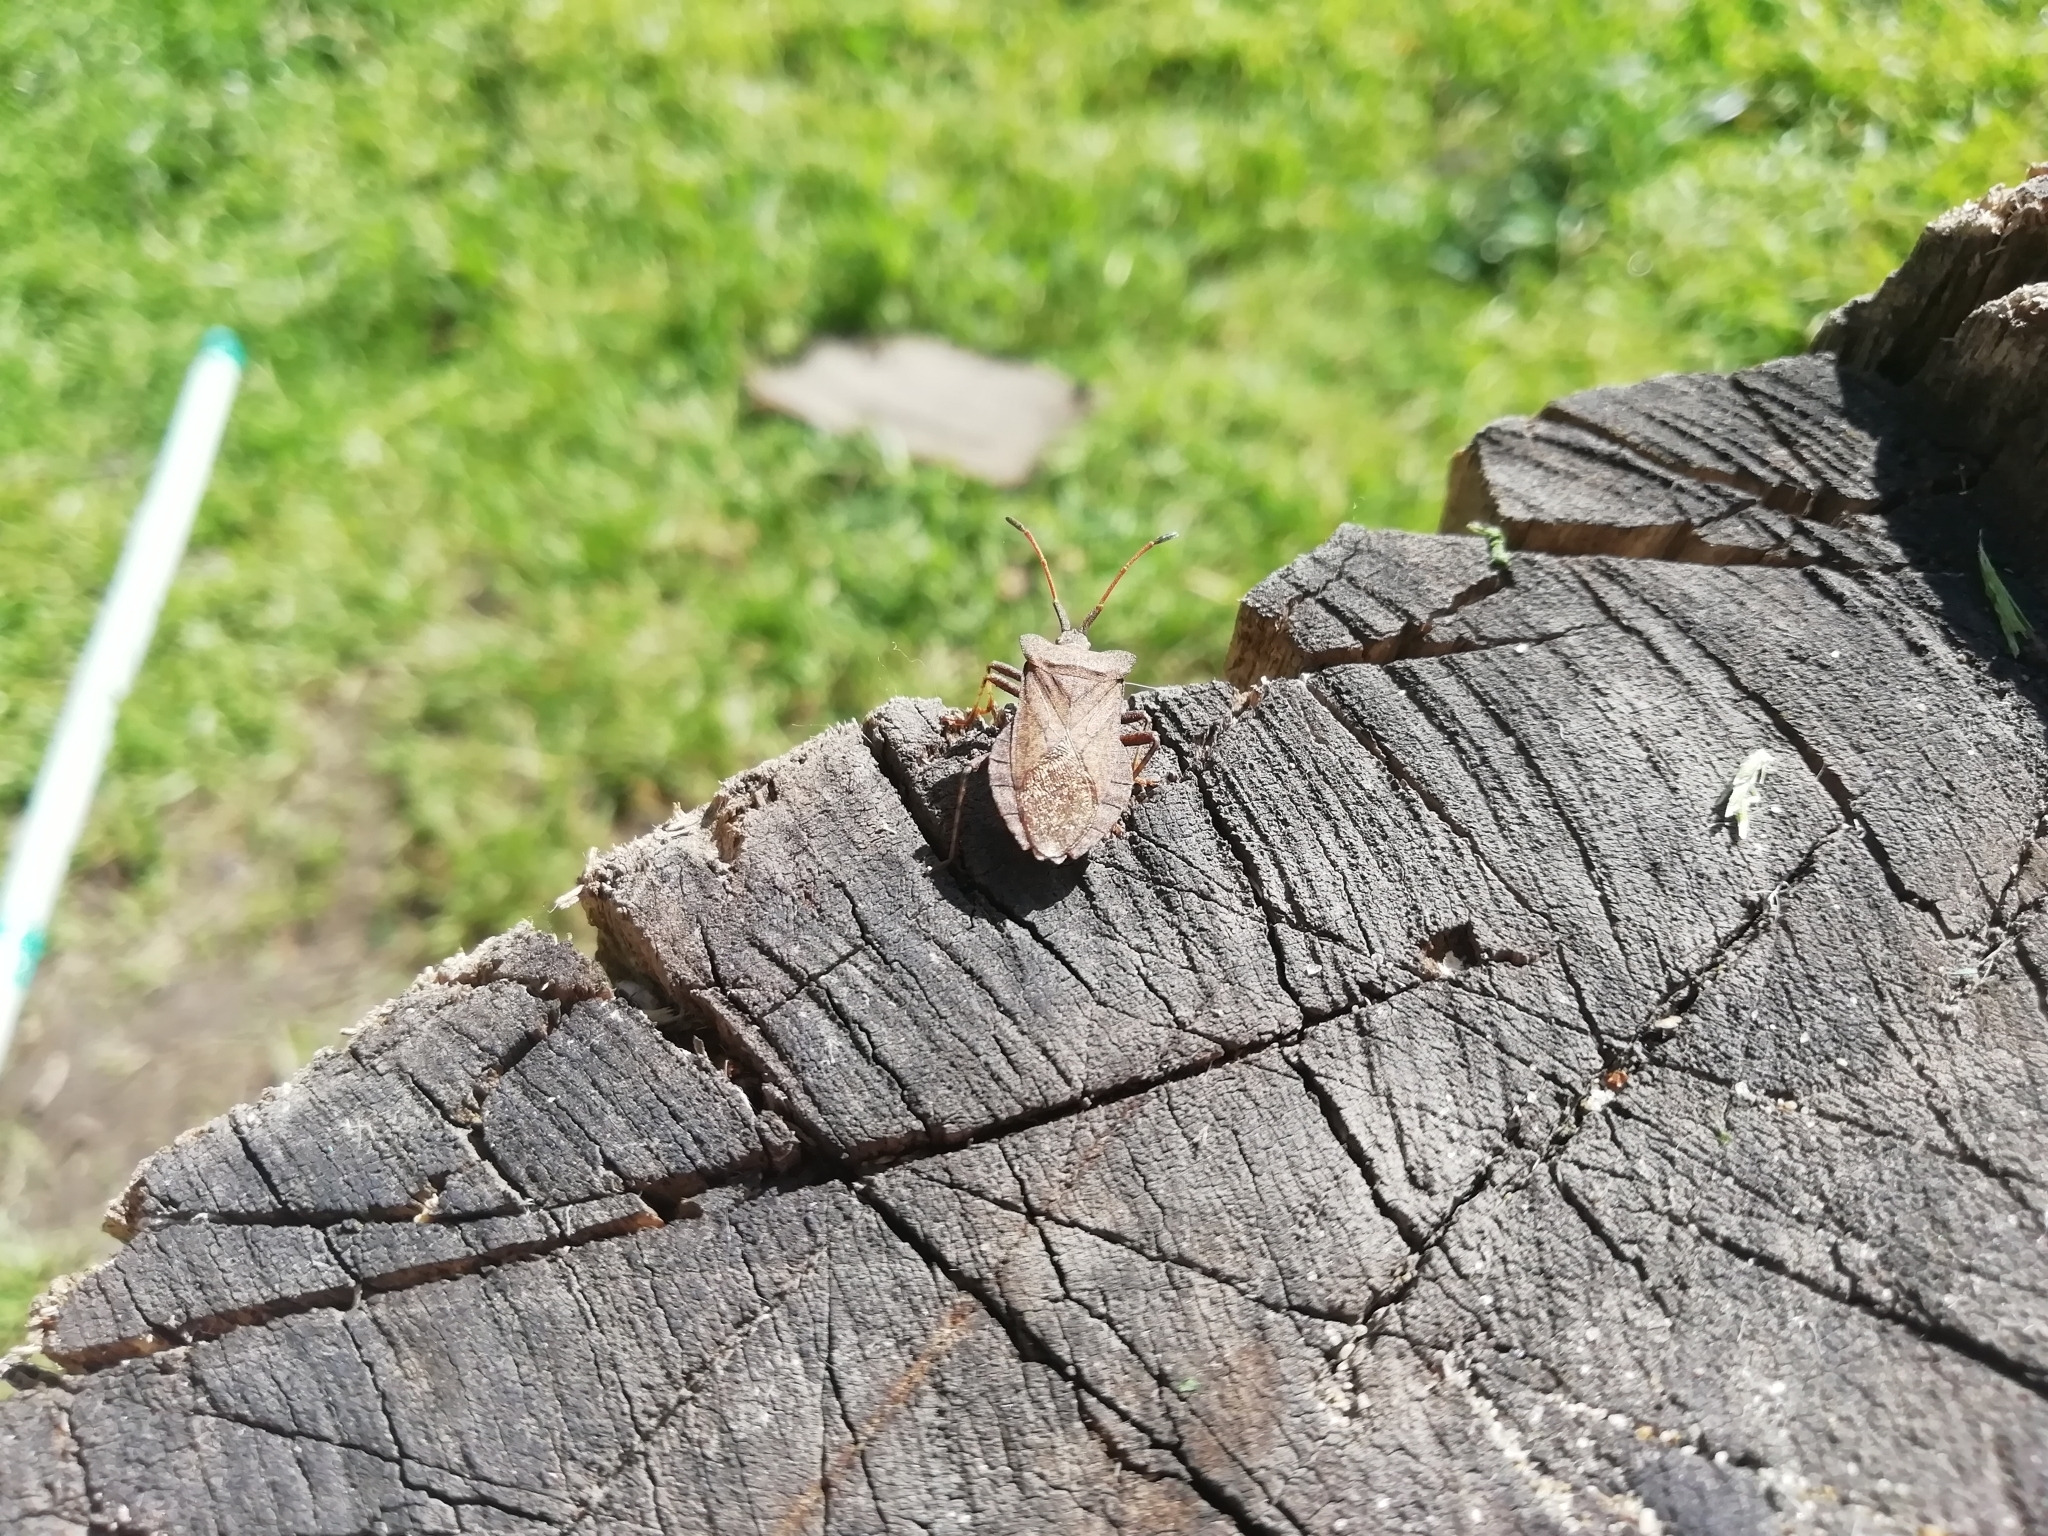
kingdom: Animalia
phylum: Arthropoda
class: Insecta
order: Hemiptera
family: Coreidae
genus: Coreus
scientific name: Coreus marginatus
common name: Dock bug
